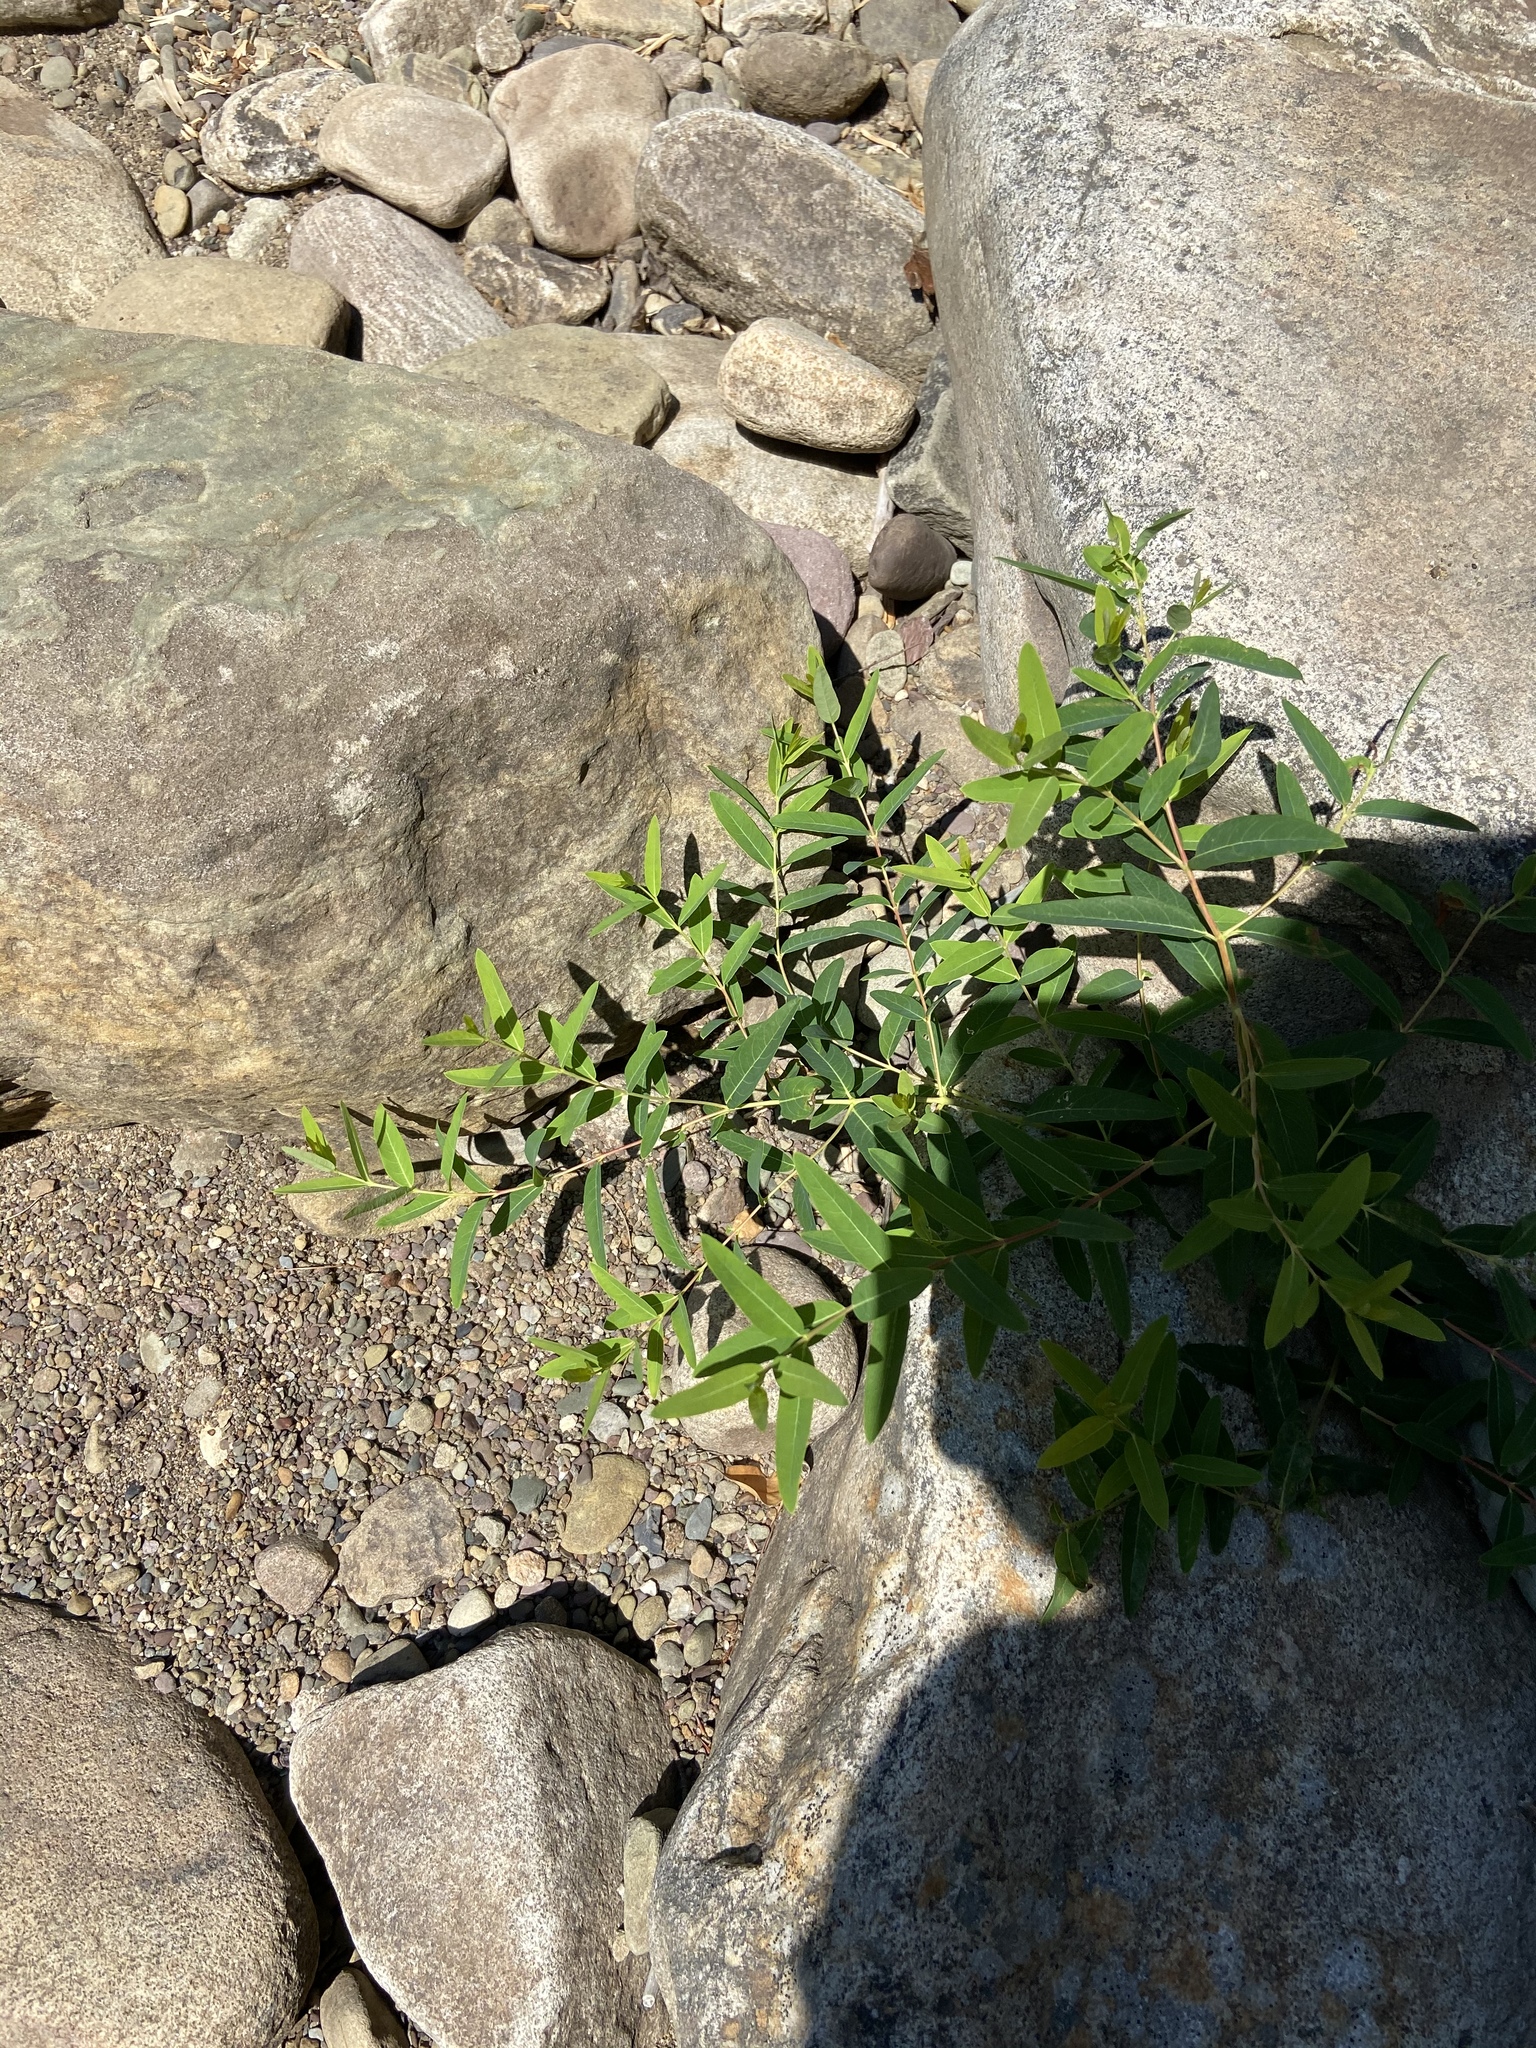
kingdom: Plantae
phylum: Tracheophyta
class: Magnoliopsida
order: Gentianales
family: Apocynaceae
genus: Apocynum
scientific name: Apocynum cannabinum
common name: Hemp dogbane
